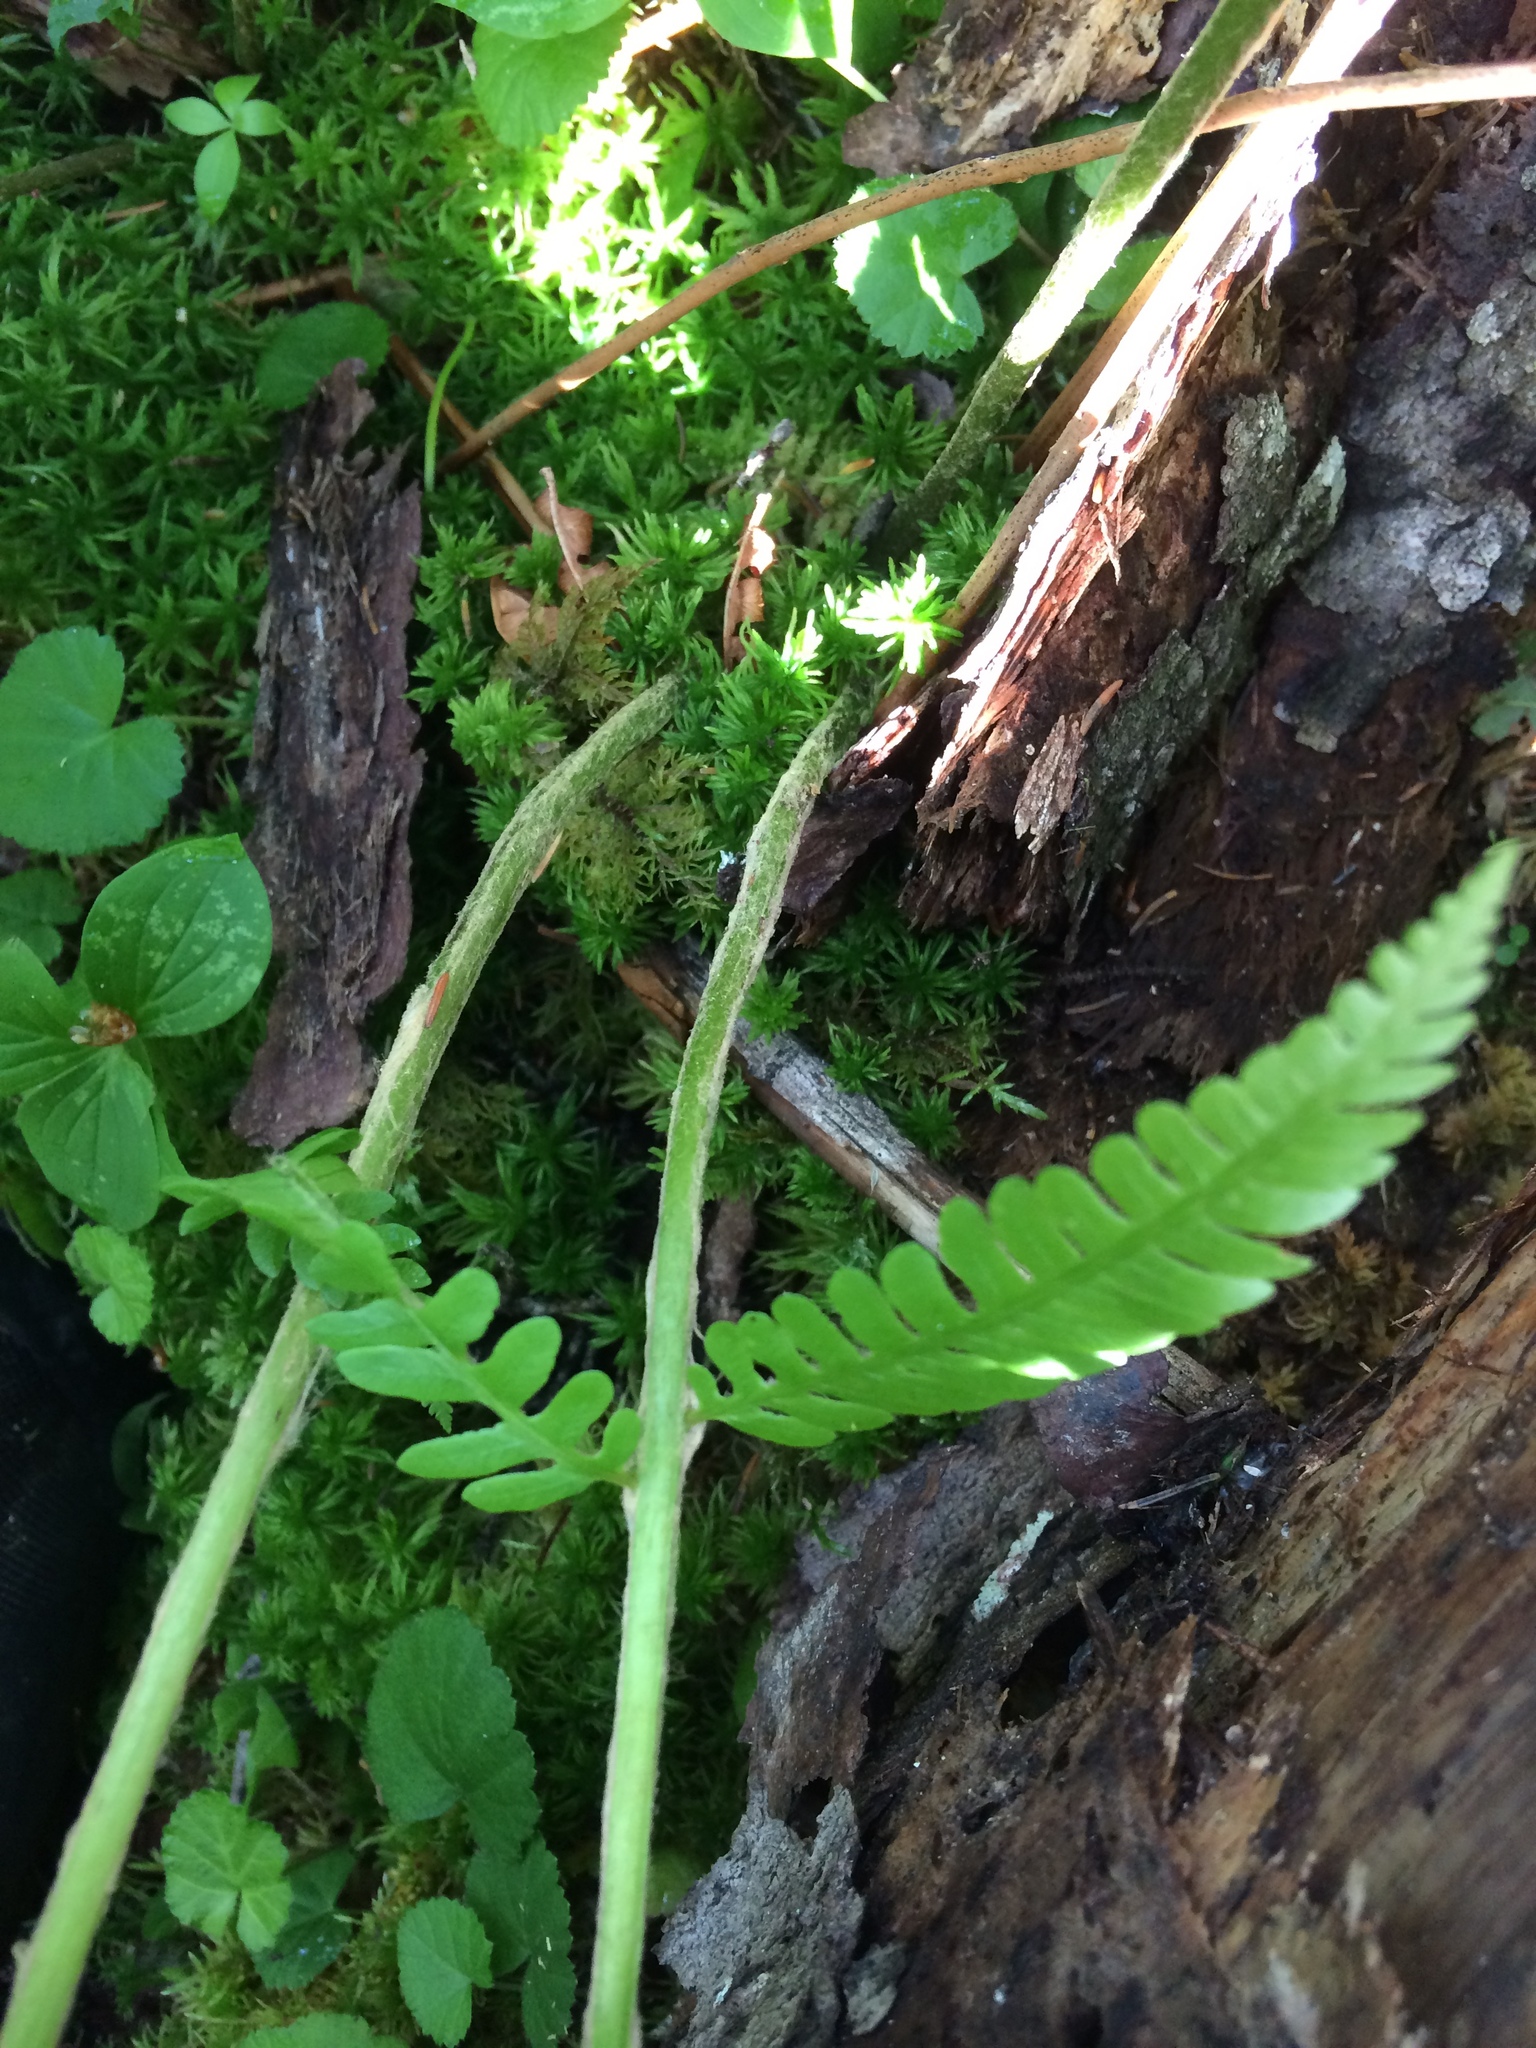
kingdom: Plantae
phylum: Tracheophyta
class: Polypodiopsida
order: Osmundales
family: Osmundaceae
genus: Osmundastrum
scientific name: Osmundastrum cinnamomeum
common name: Cinnamon fern
